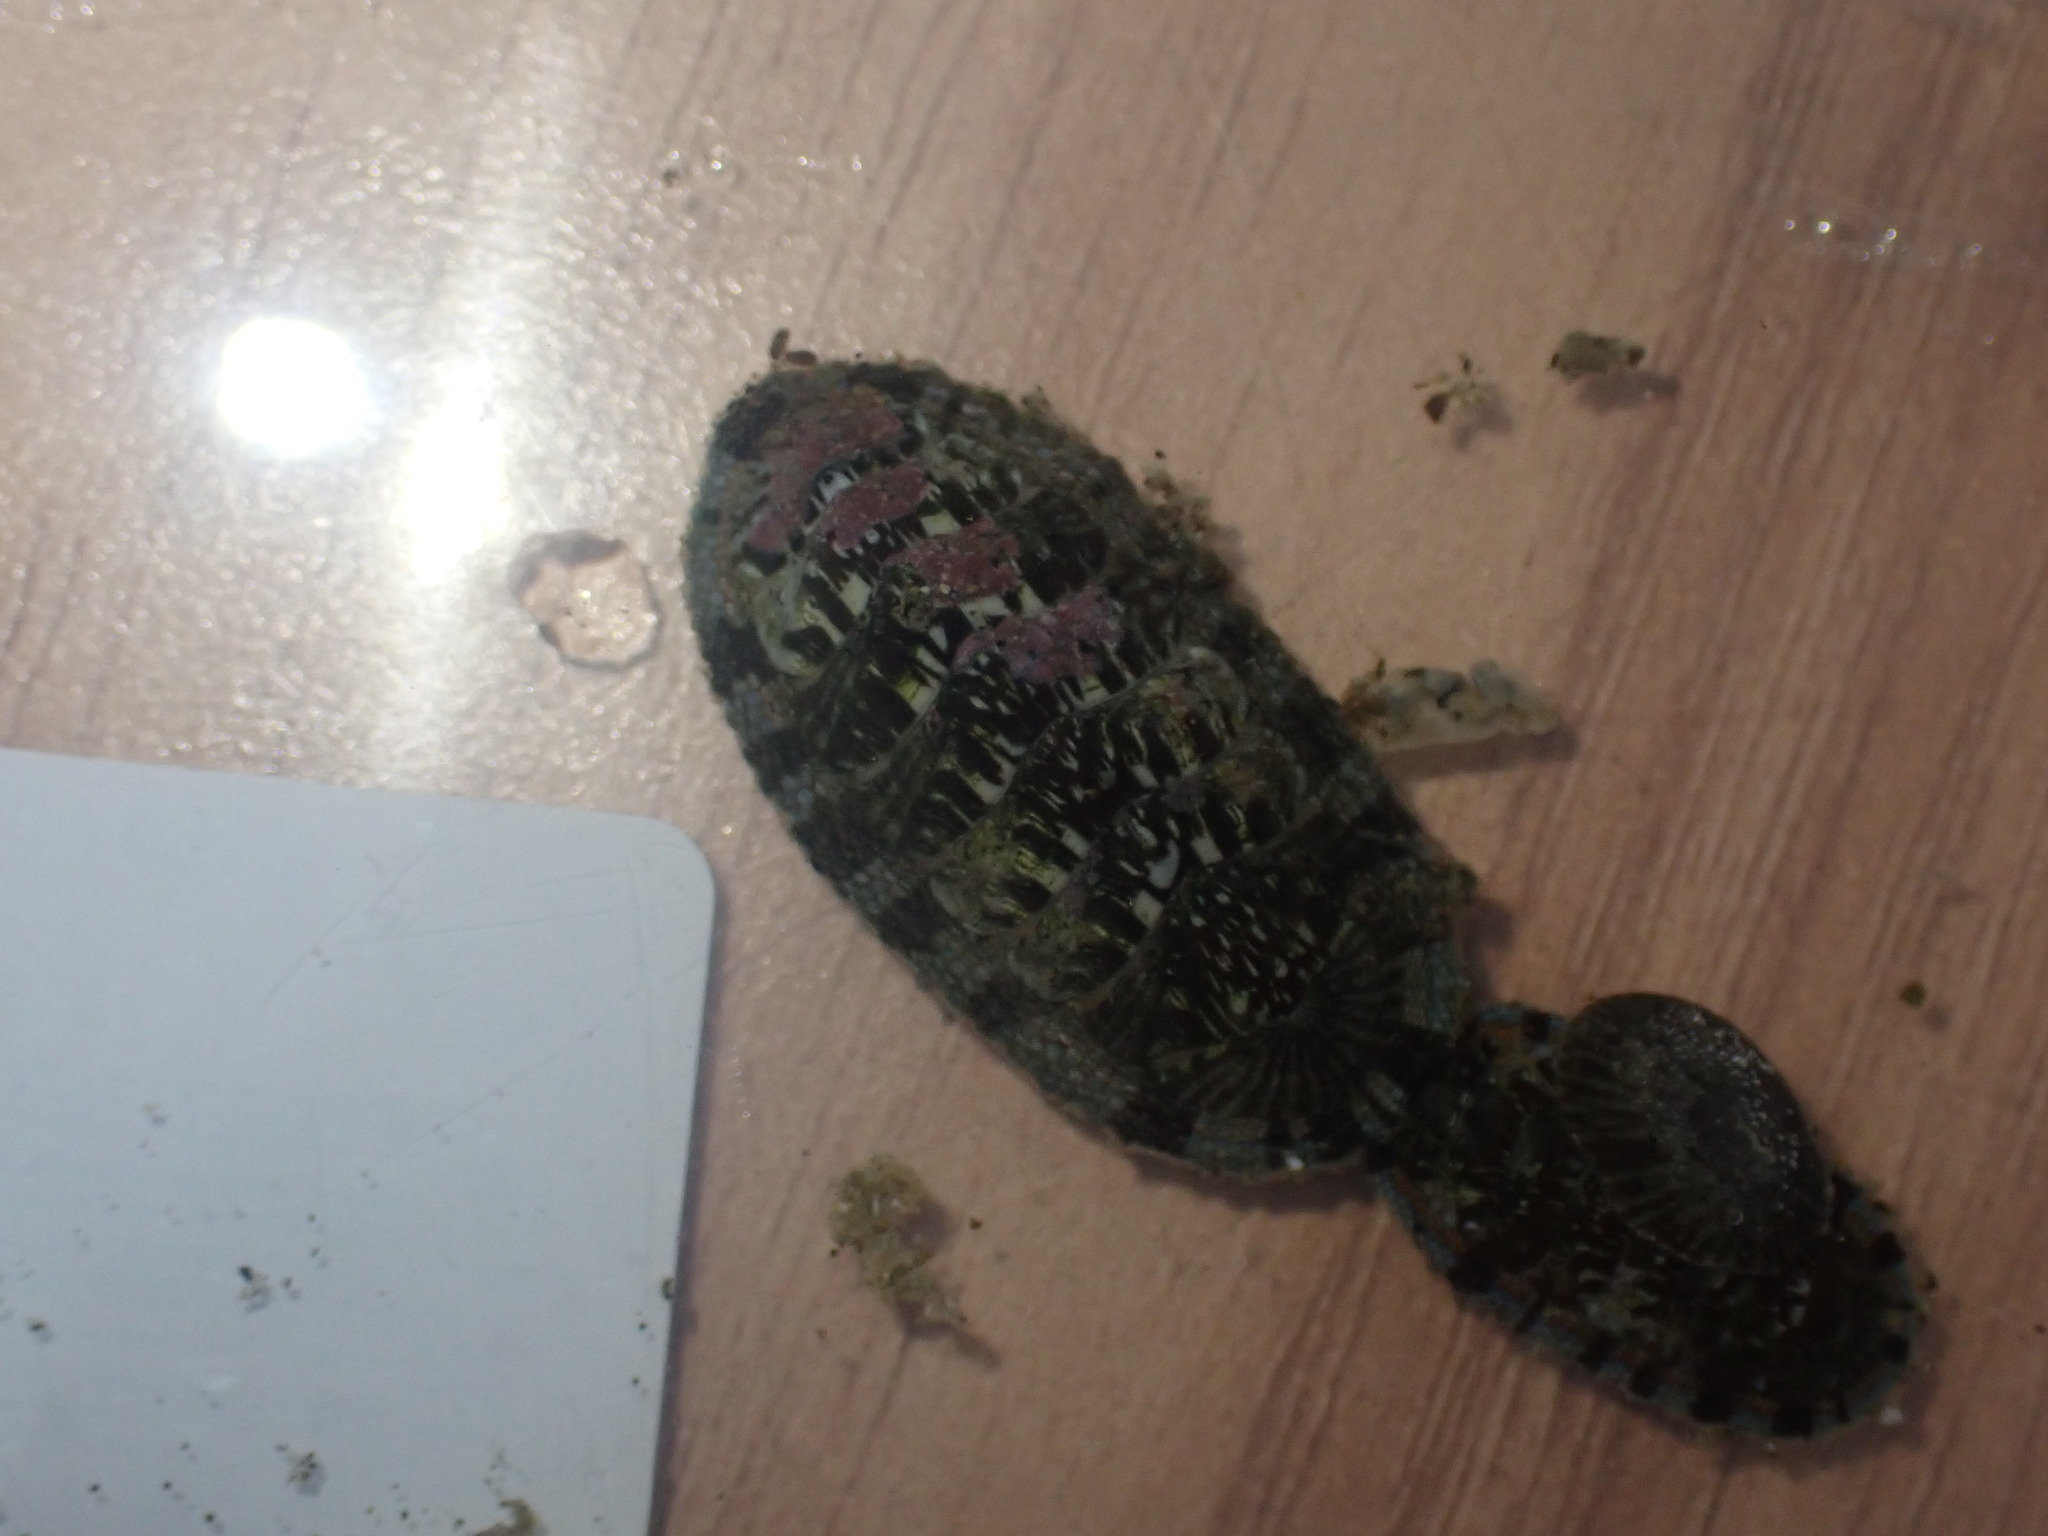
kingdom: Animalia
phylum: Mollusca
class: Polyplacophora
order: Chitonida
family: Chitonidae
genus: Sypharochiton
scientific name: Sypharochiton sinclairi
